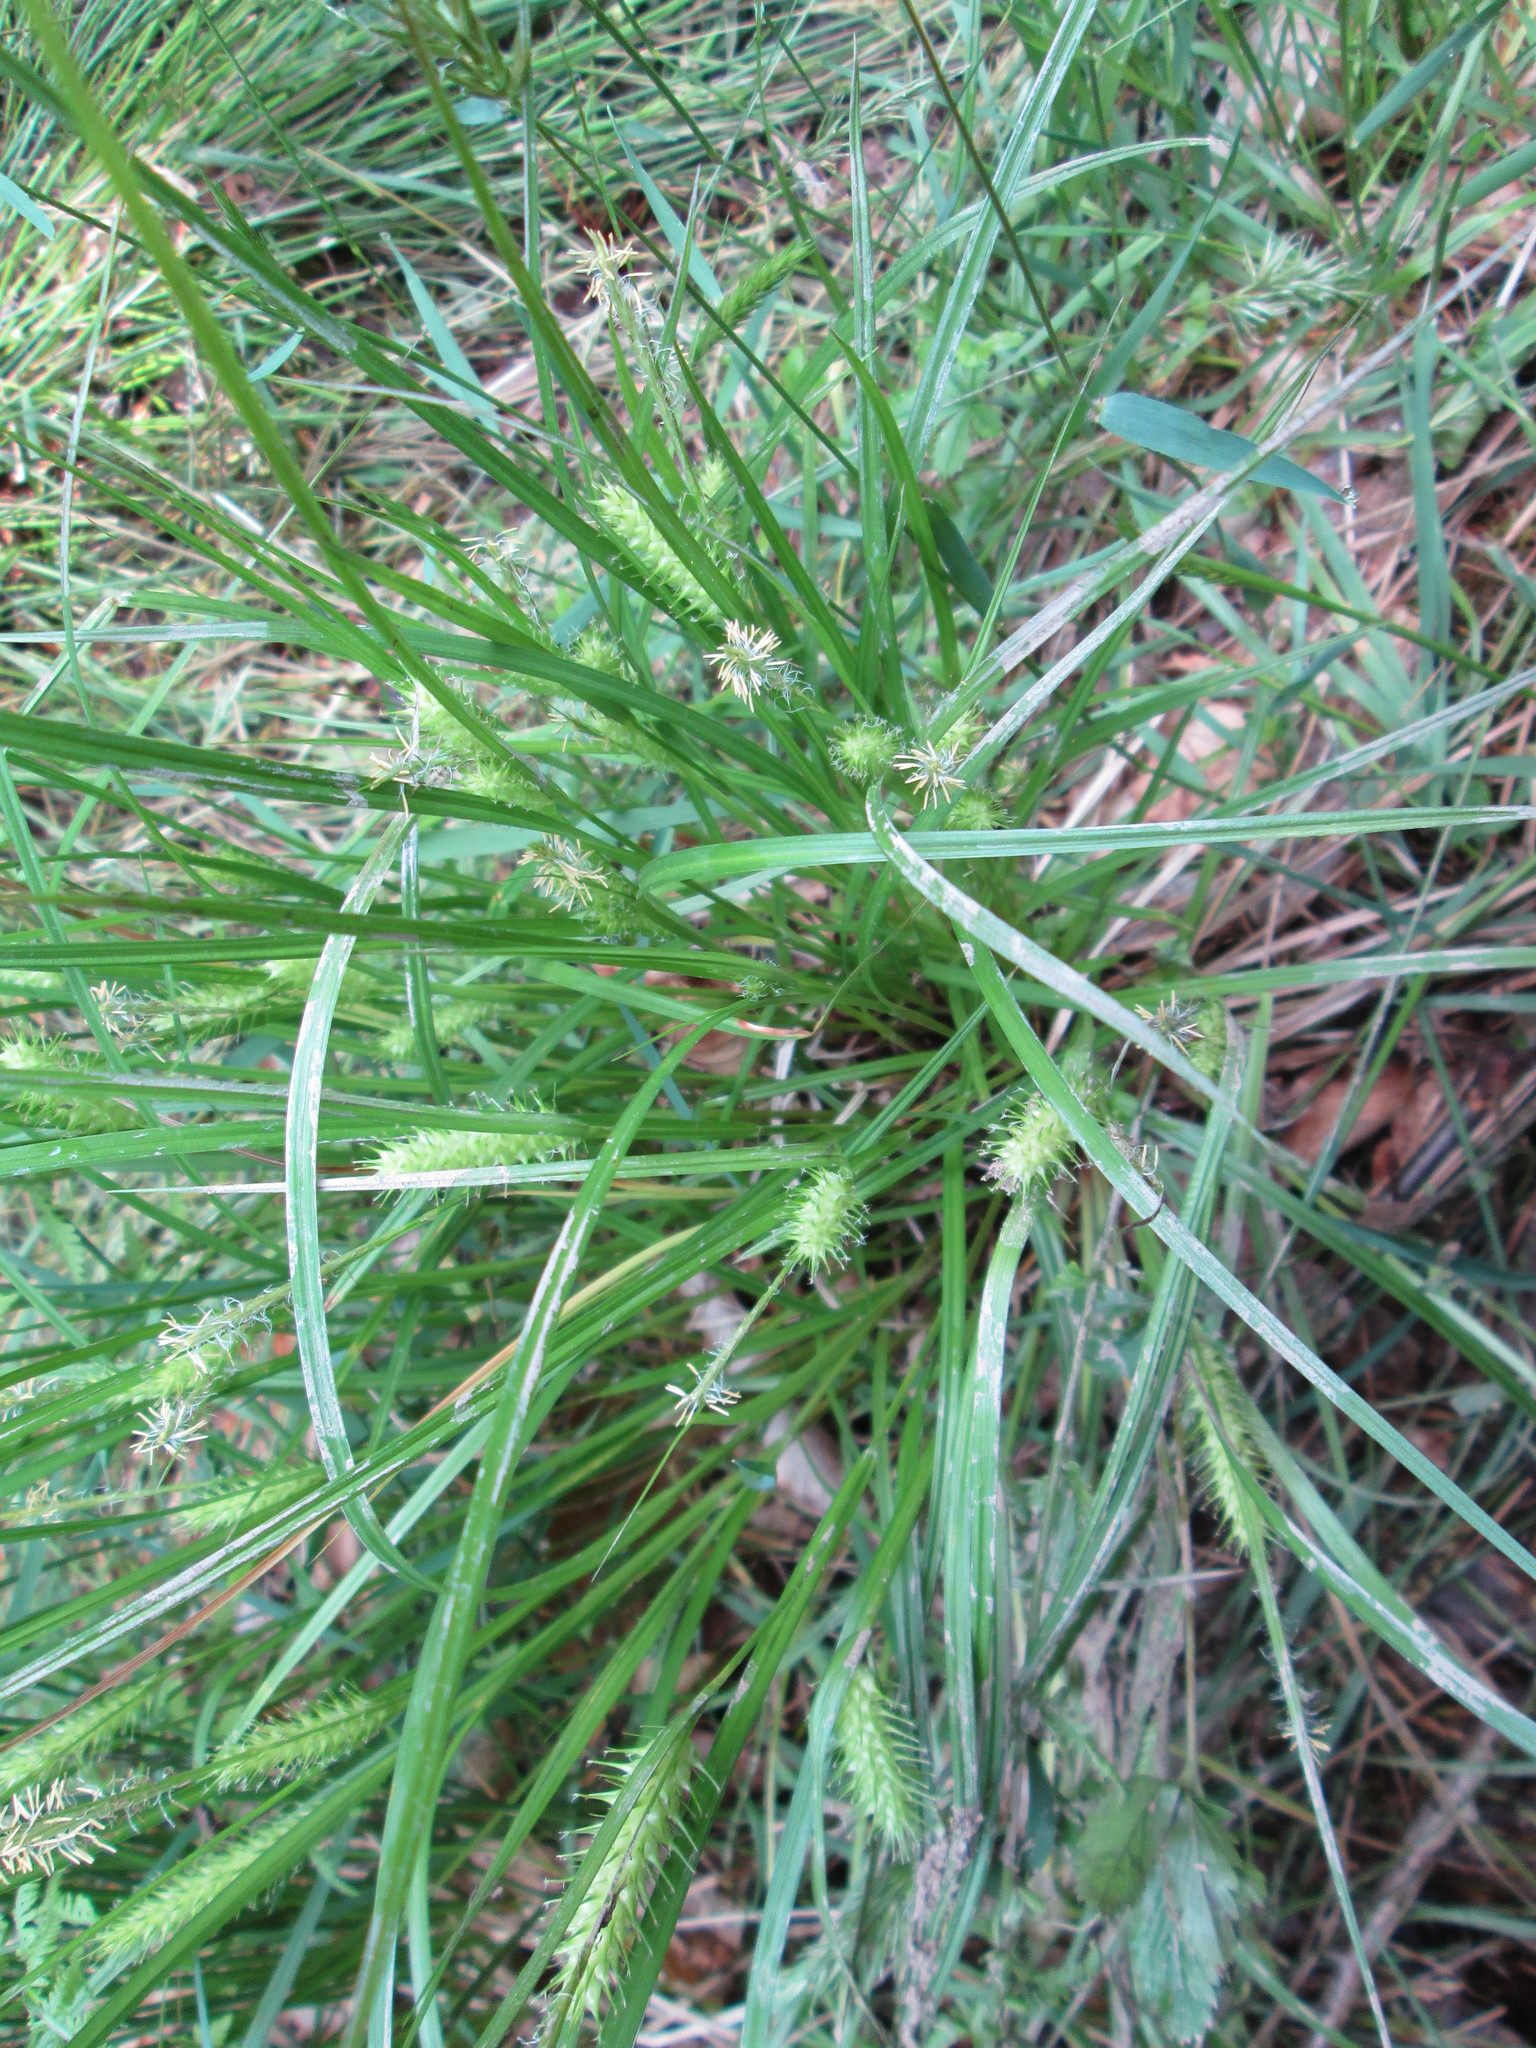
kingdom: Plantae
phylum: Tracheophyta
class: Liliopsida
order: Poales
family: Cyperaceae
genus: Carex
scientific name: Carex baileyi
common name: Bailey's sedge
